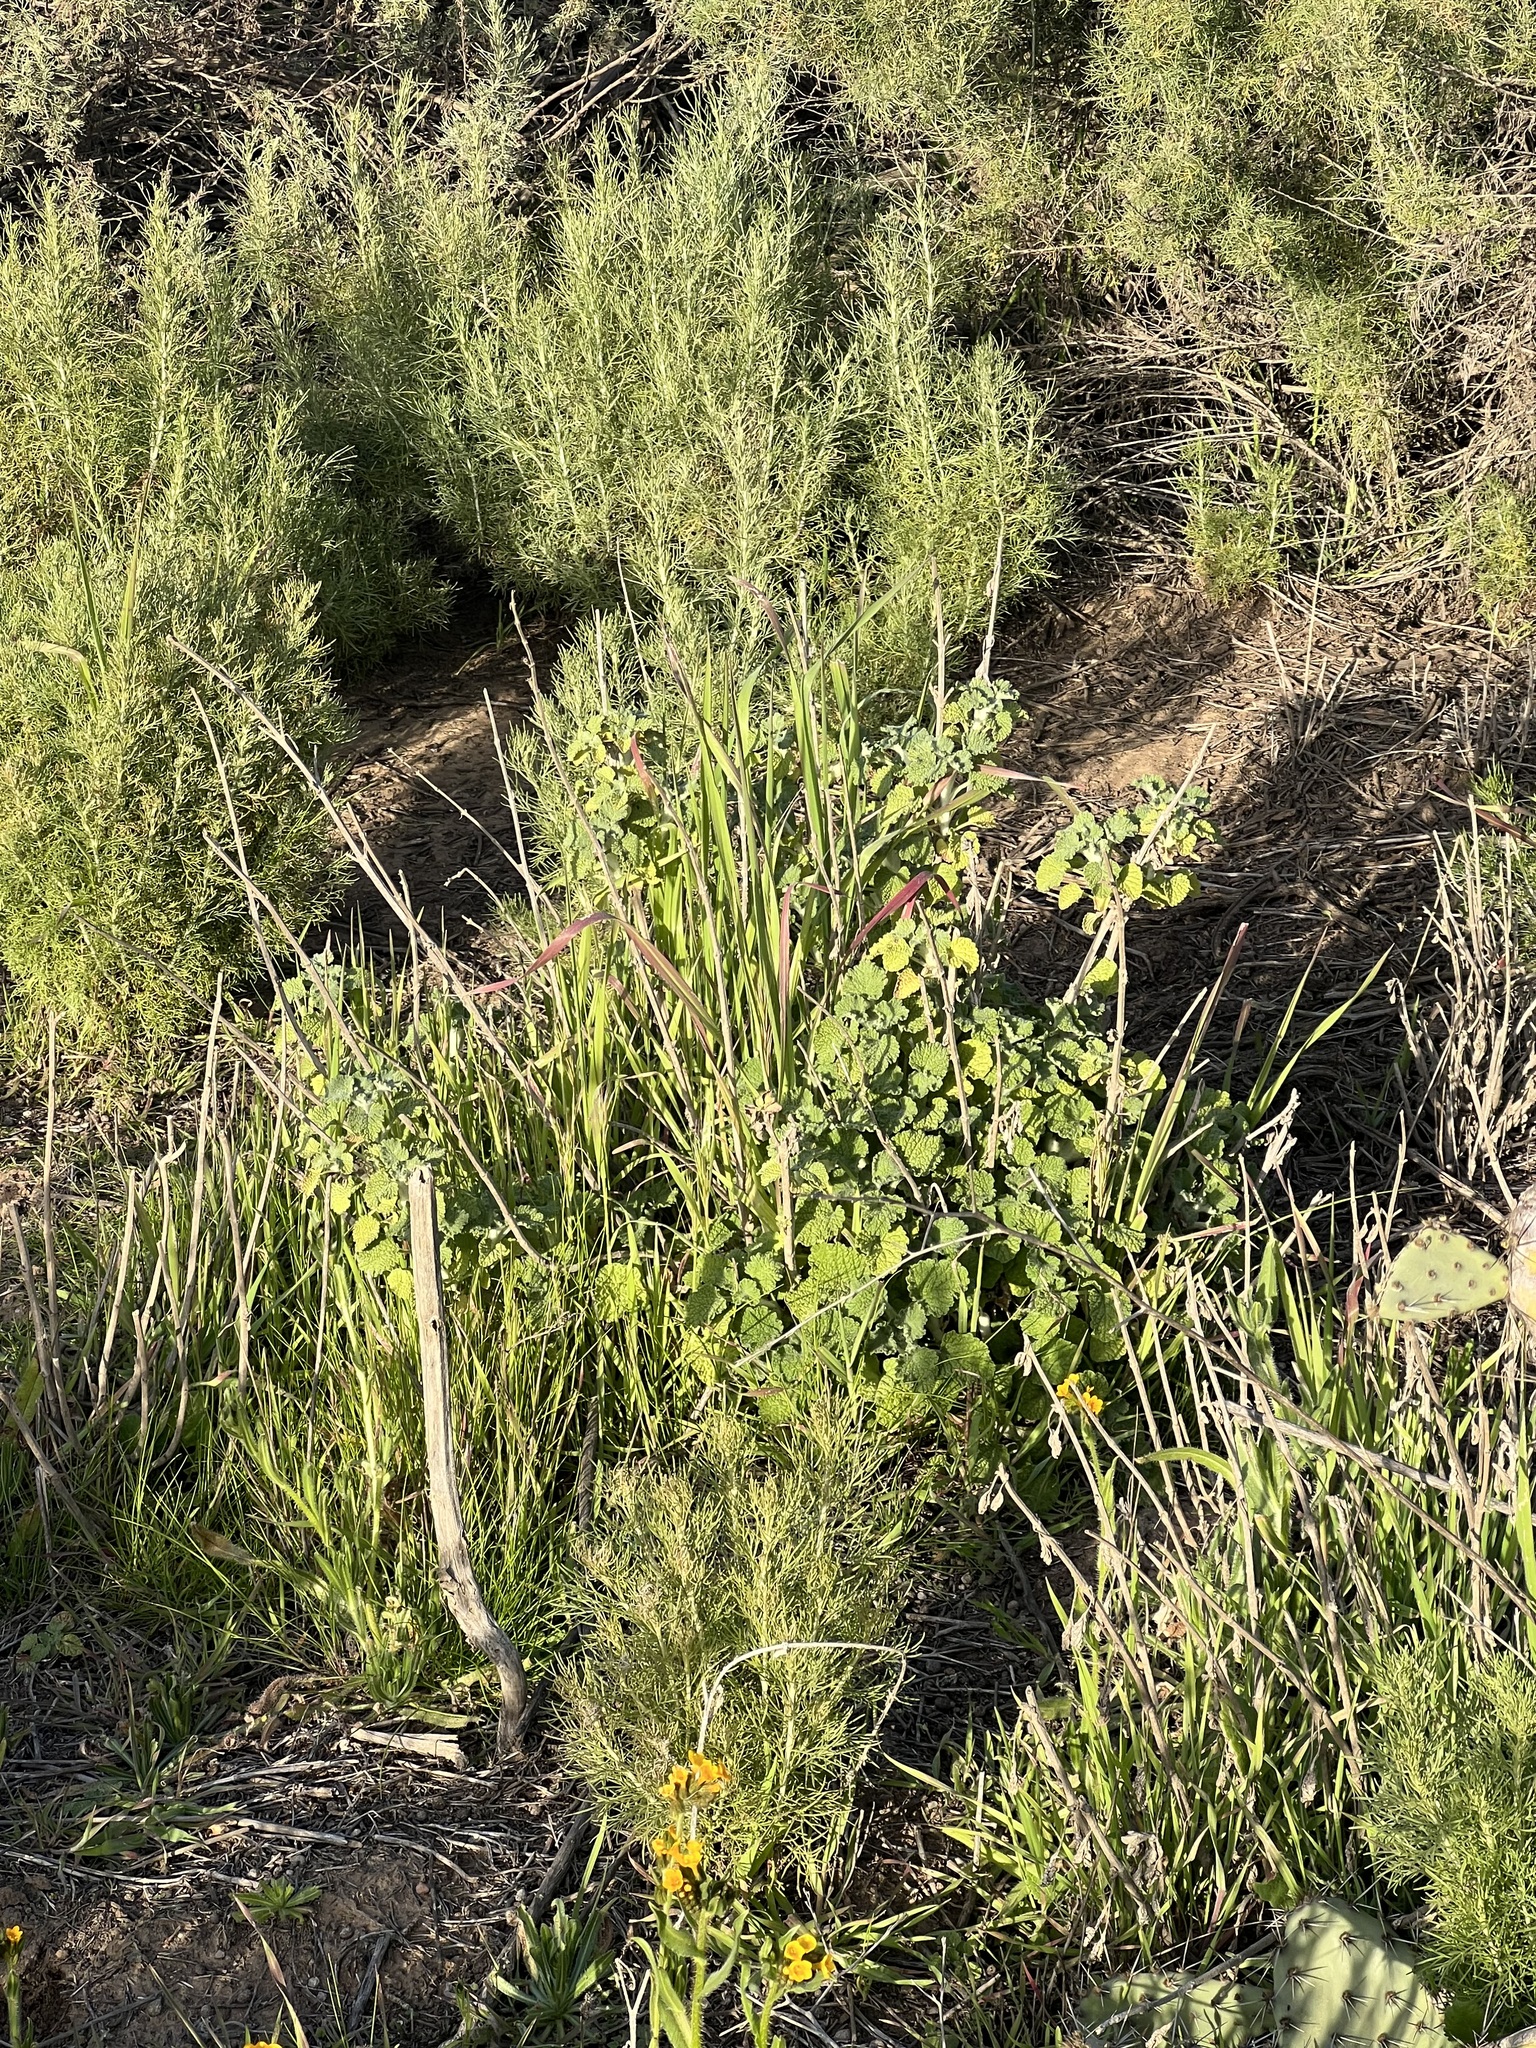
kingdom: Plantae
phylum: Tracheophyta
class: Magnoliopsida
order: Lamiales
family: Lamiaceae
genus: Marrubium
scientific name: Marrubium vulgare
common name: Horehound
